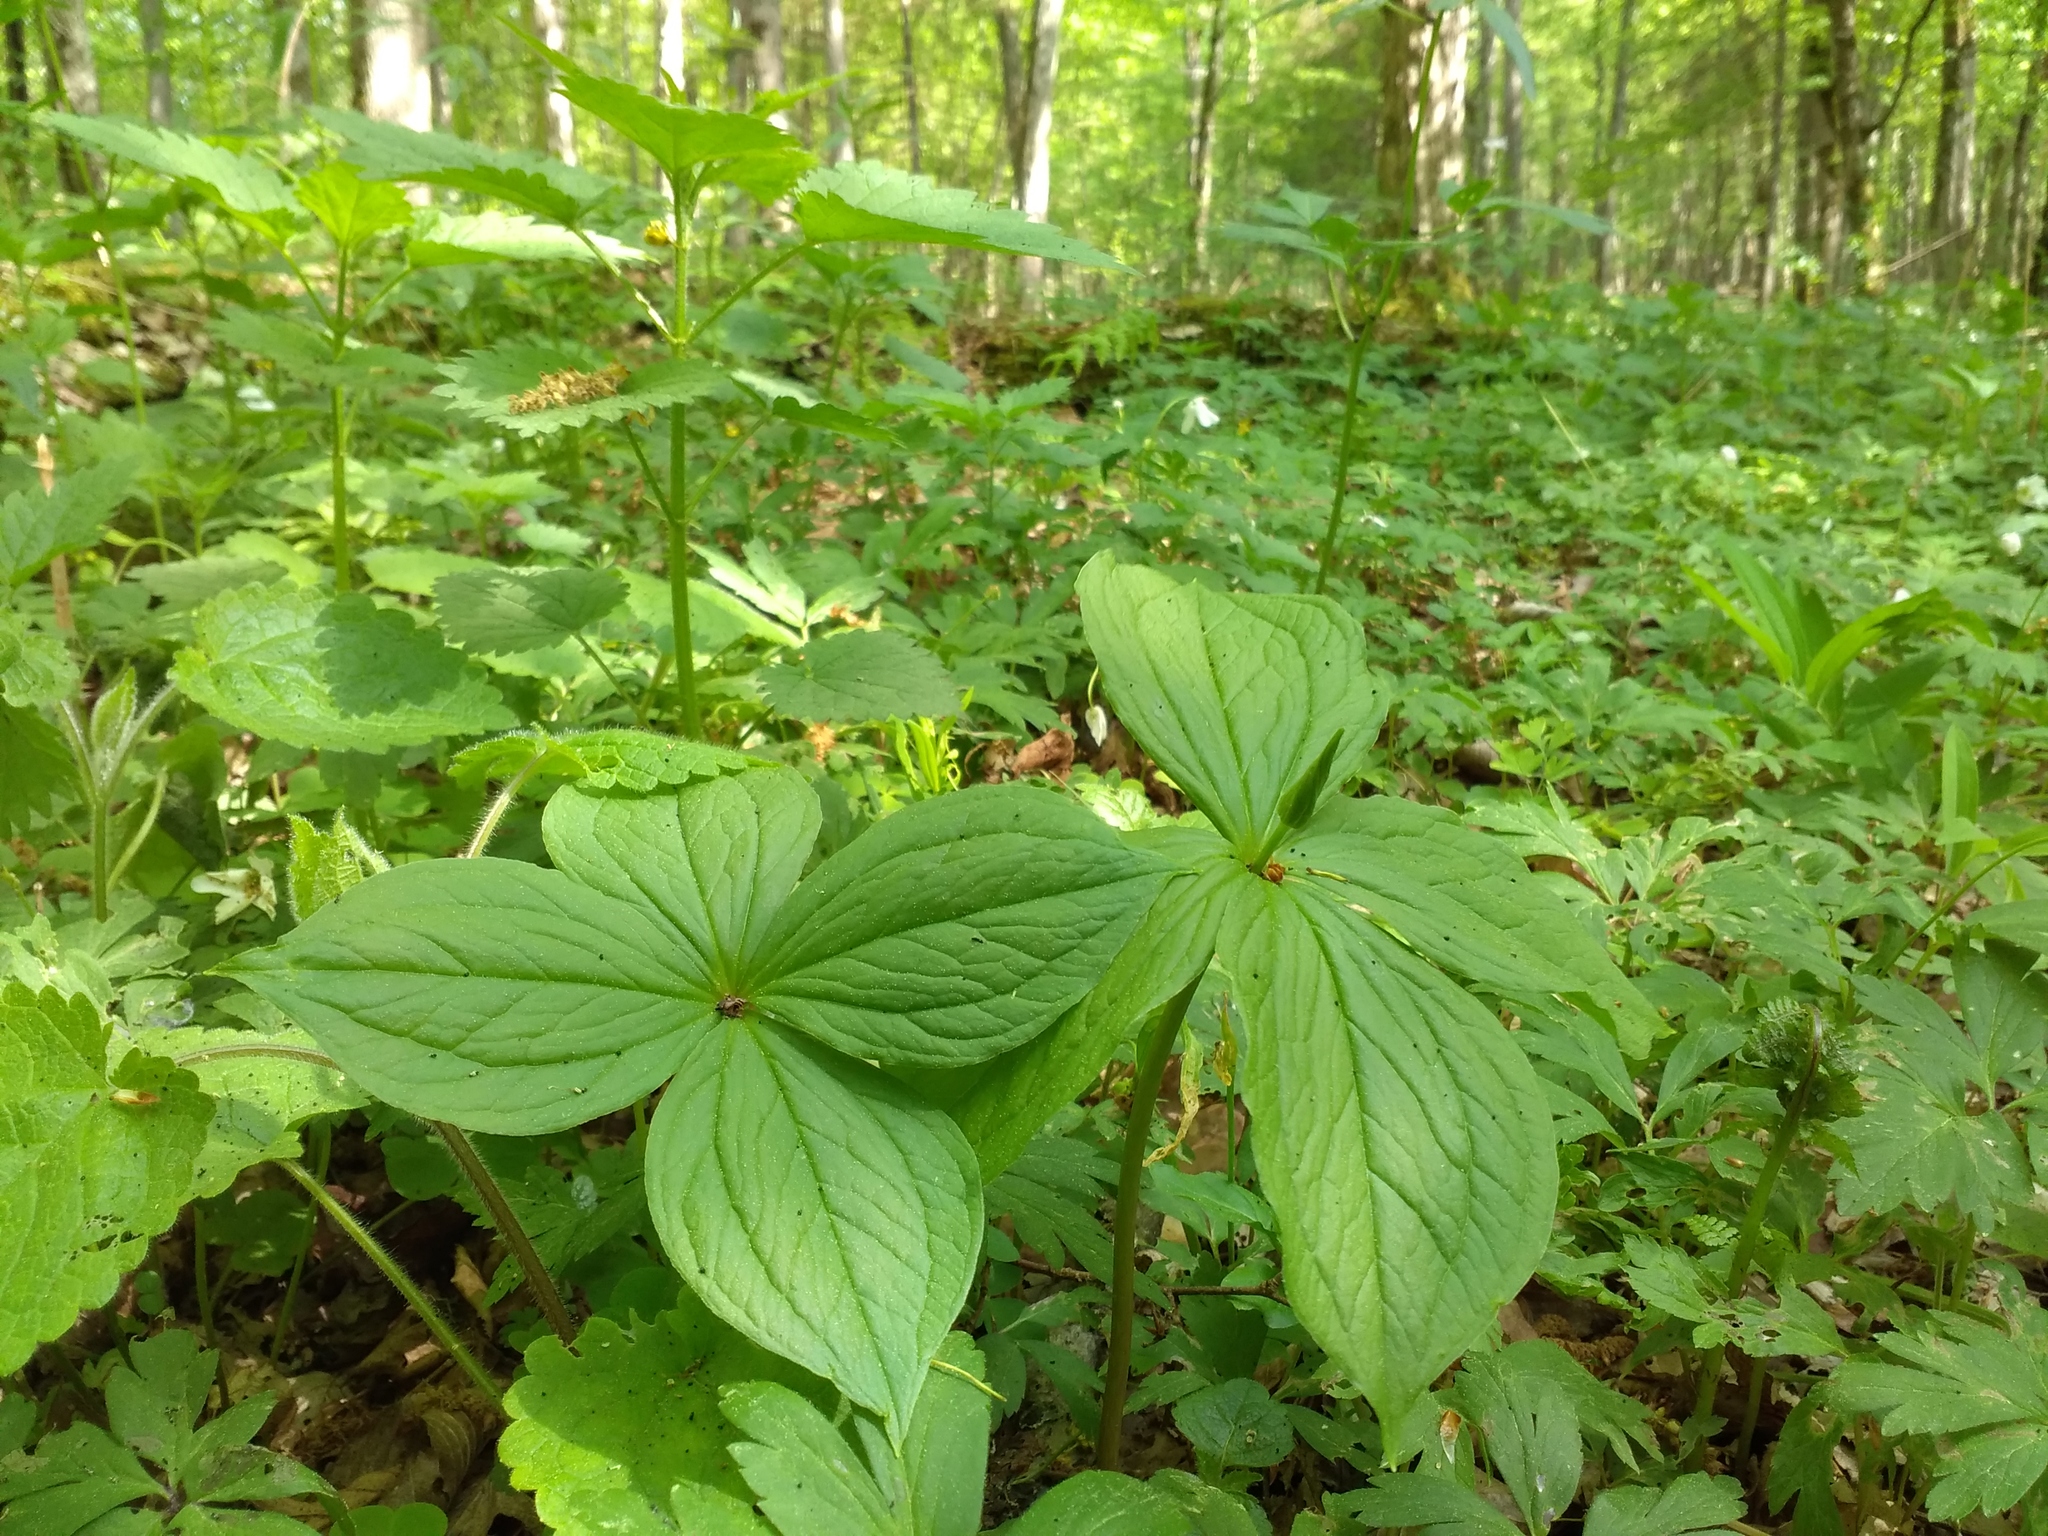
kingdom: Plantae
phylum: Tracheophyta
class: Liliopsida
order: Liliales
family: Melanthiaceae
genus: Paris
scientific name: Paris quadrifolia
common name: Herb-paris
